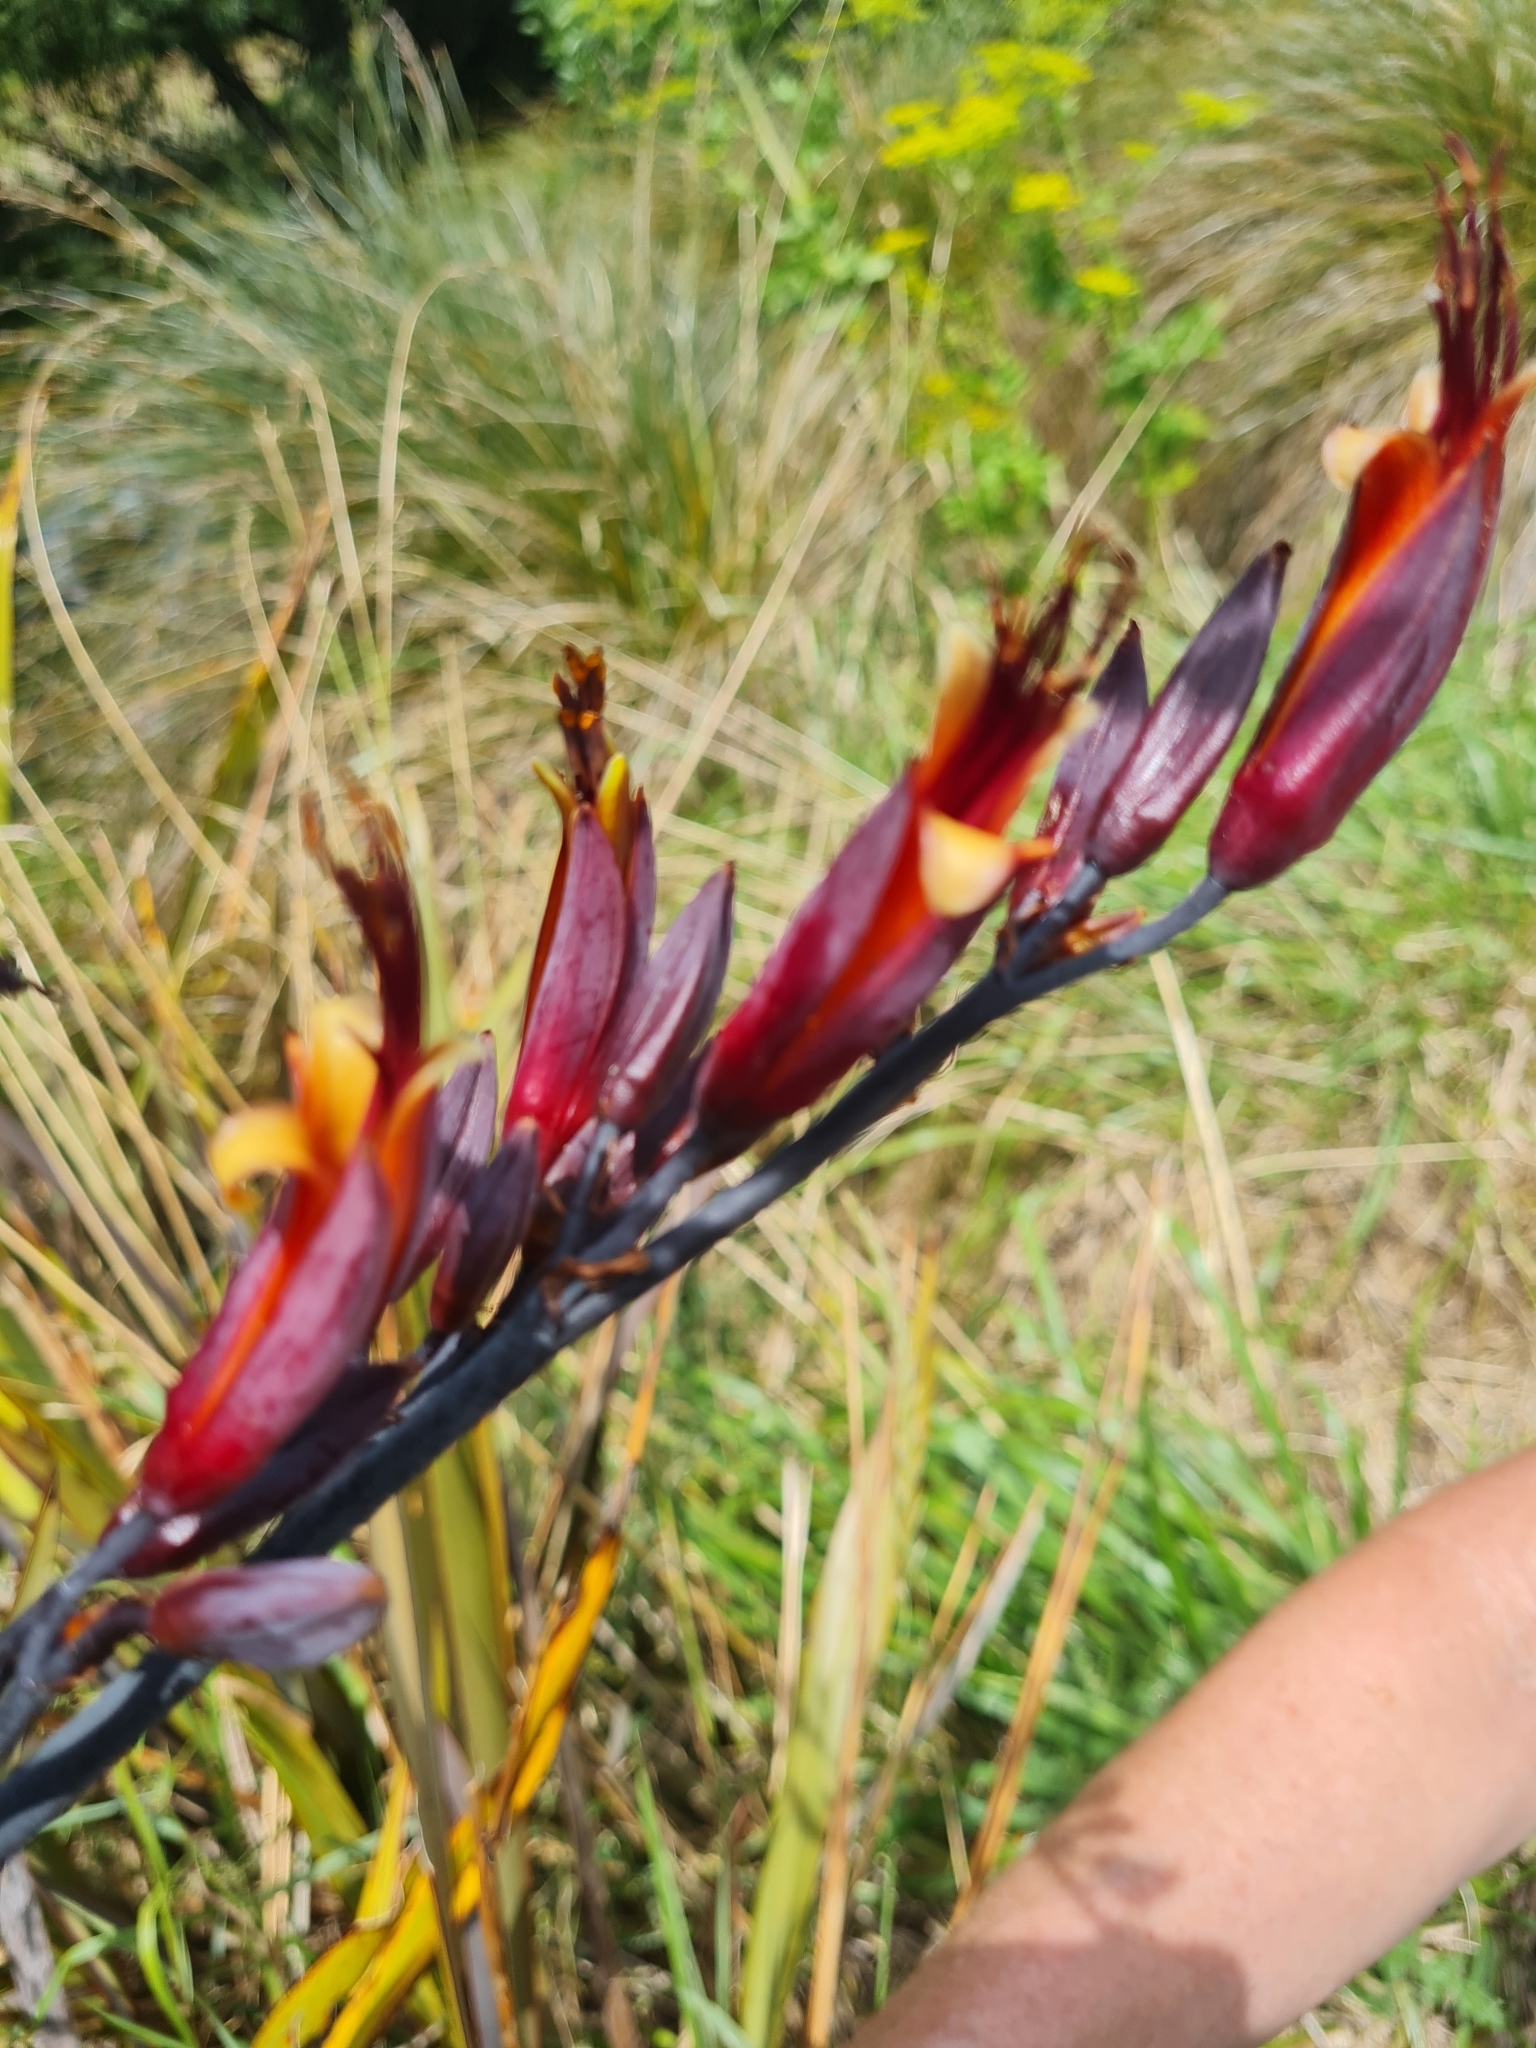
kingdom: Plantae
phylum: Tracheophyta
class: Liliopsida
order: Asparagales
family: Asphodelaceae
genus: Phormium
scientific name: Phormium tenax
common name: New zealand flax
